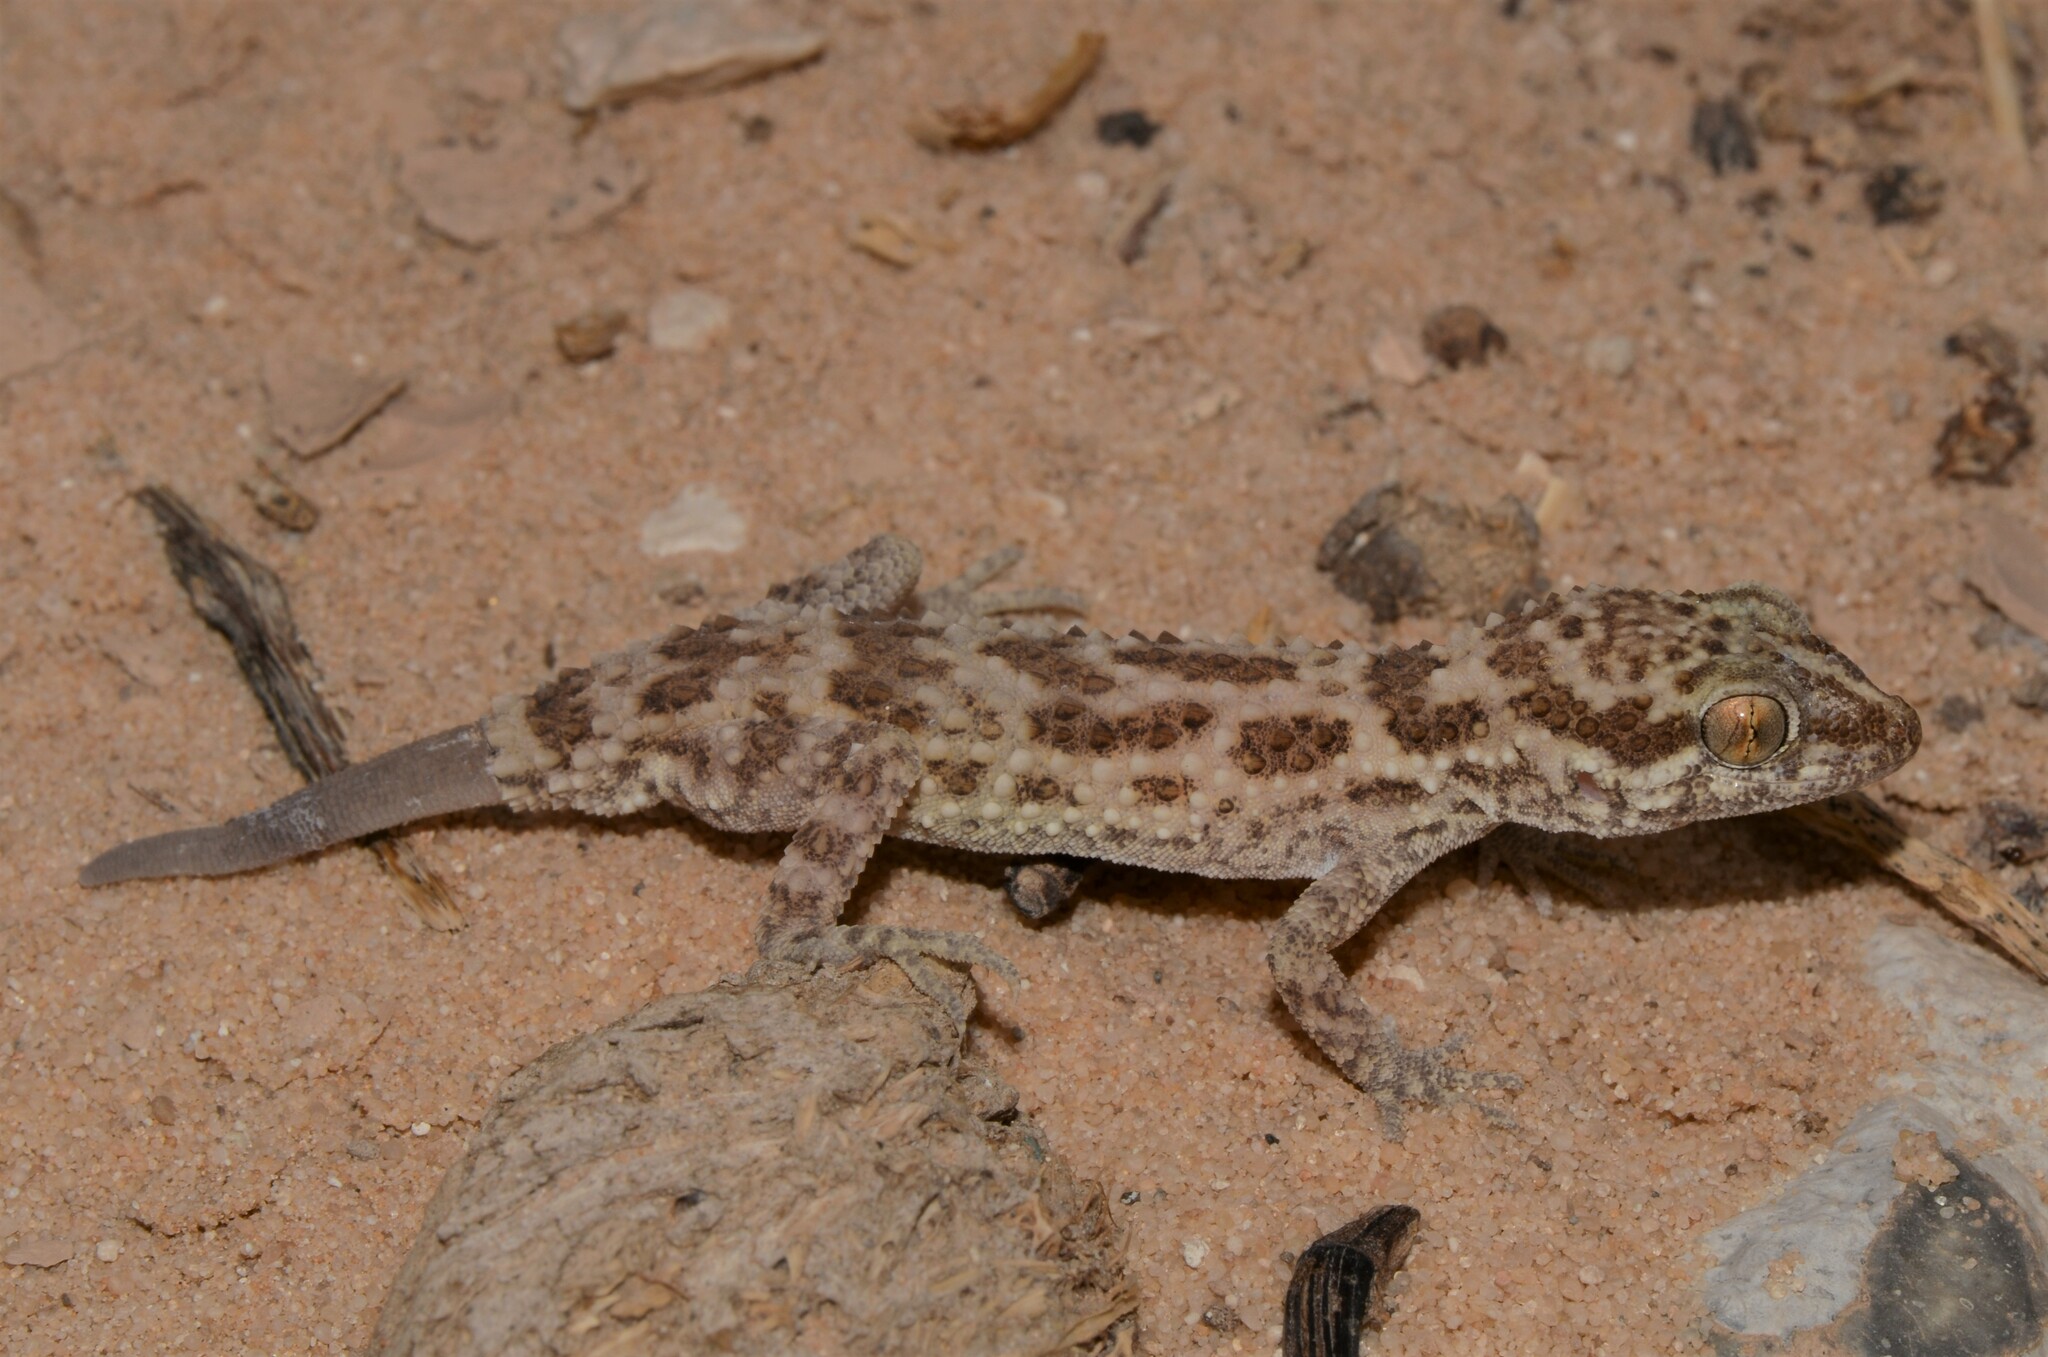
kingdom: Animalia
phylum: Chordata
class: Squamata
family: Gekkonidae
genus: Bunopus
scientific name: Bunopus tuberculatus
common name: Southern tuberculated gecko
